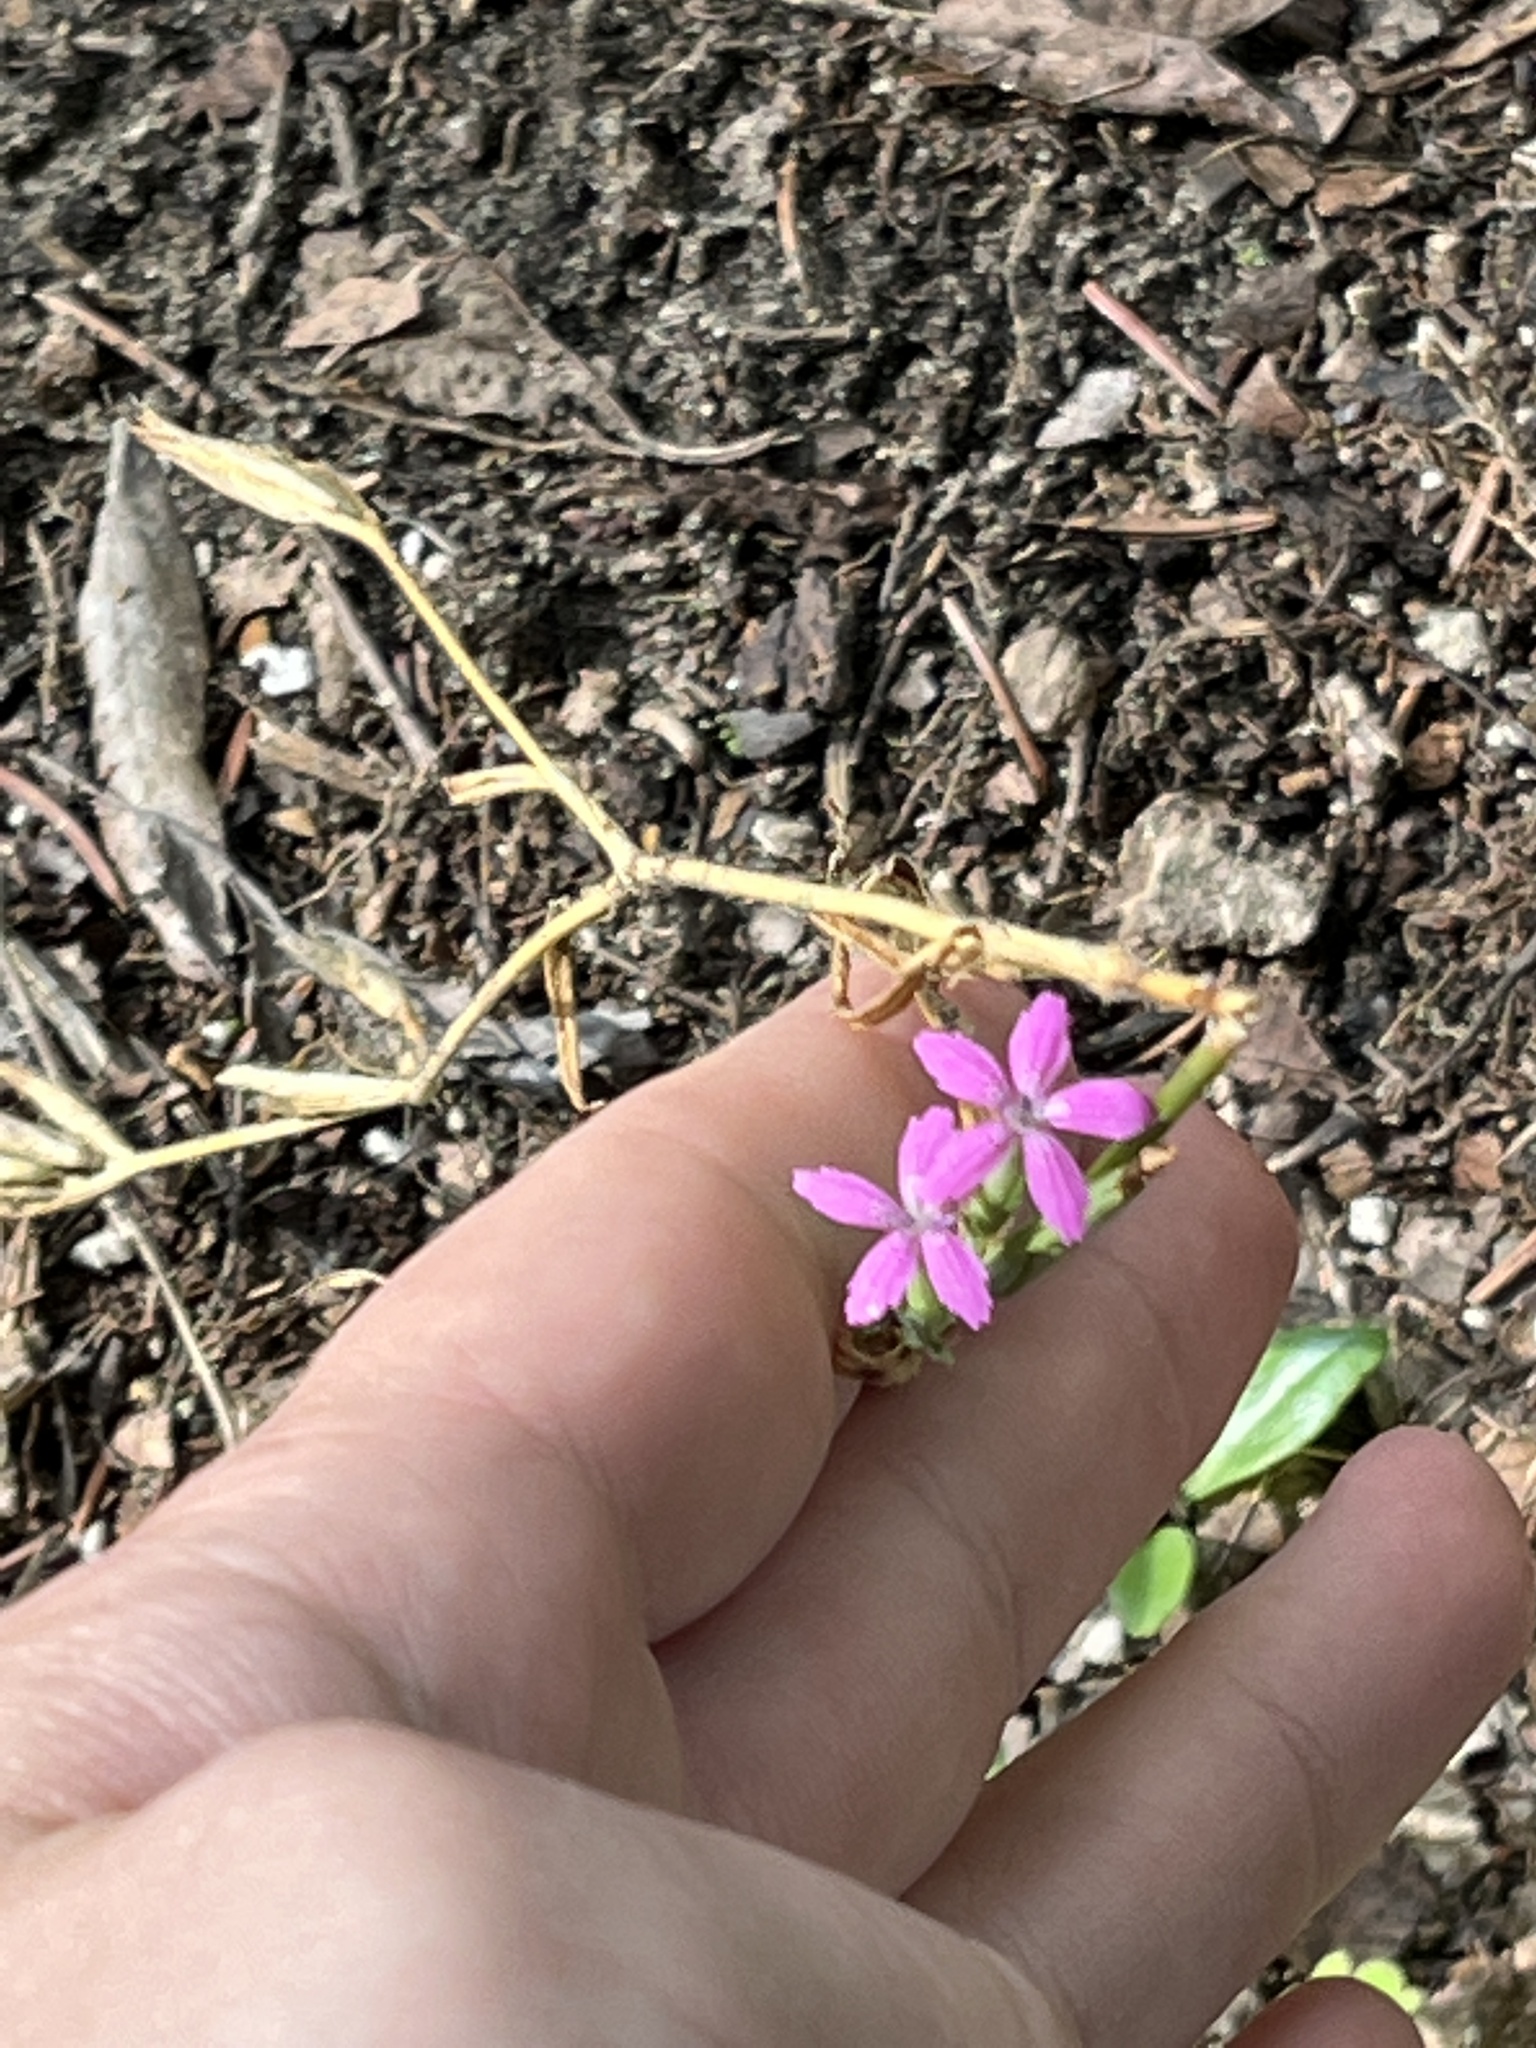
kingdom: Plantae
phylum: Tracheophyta
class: Magnoliopsida
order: Caryophyllales
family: Caryophyllaceae
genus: Dianthus
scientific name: Dianthus armeria
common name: Deptford pink
